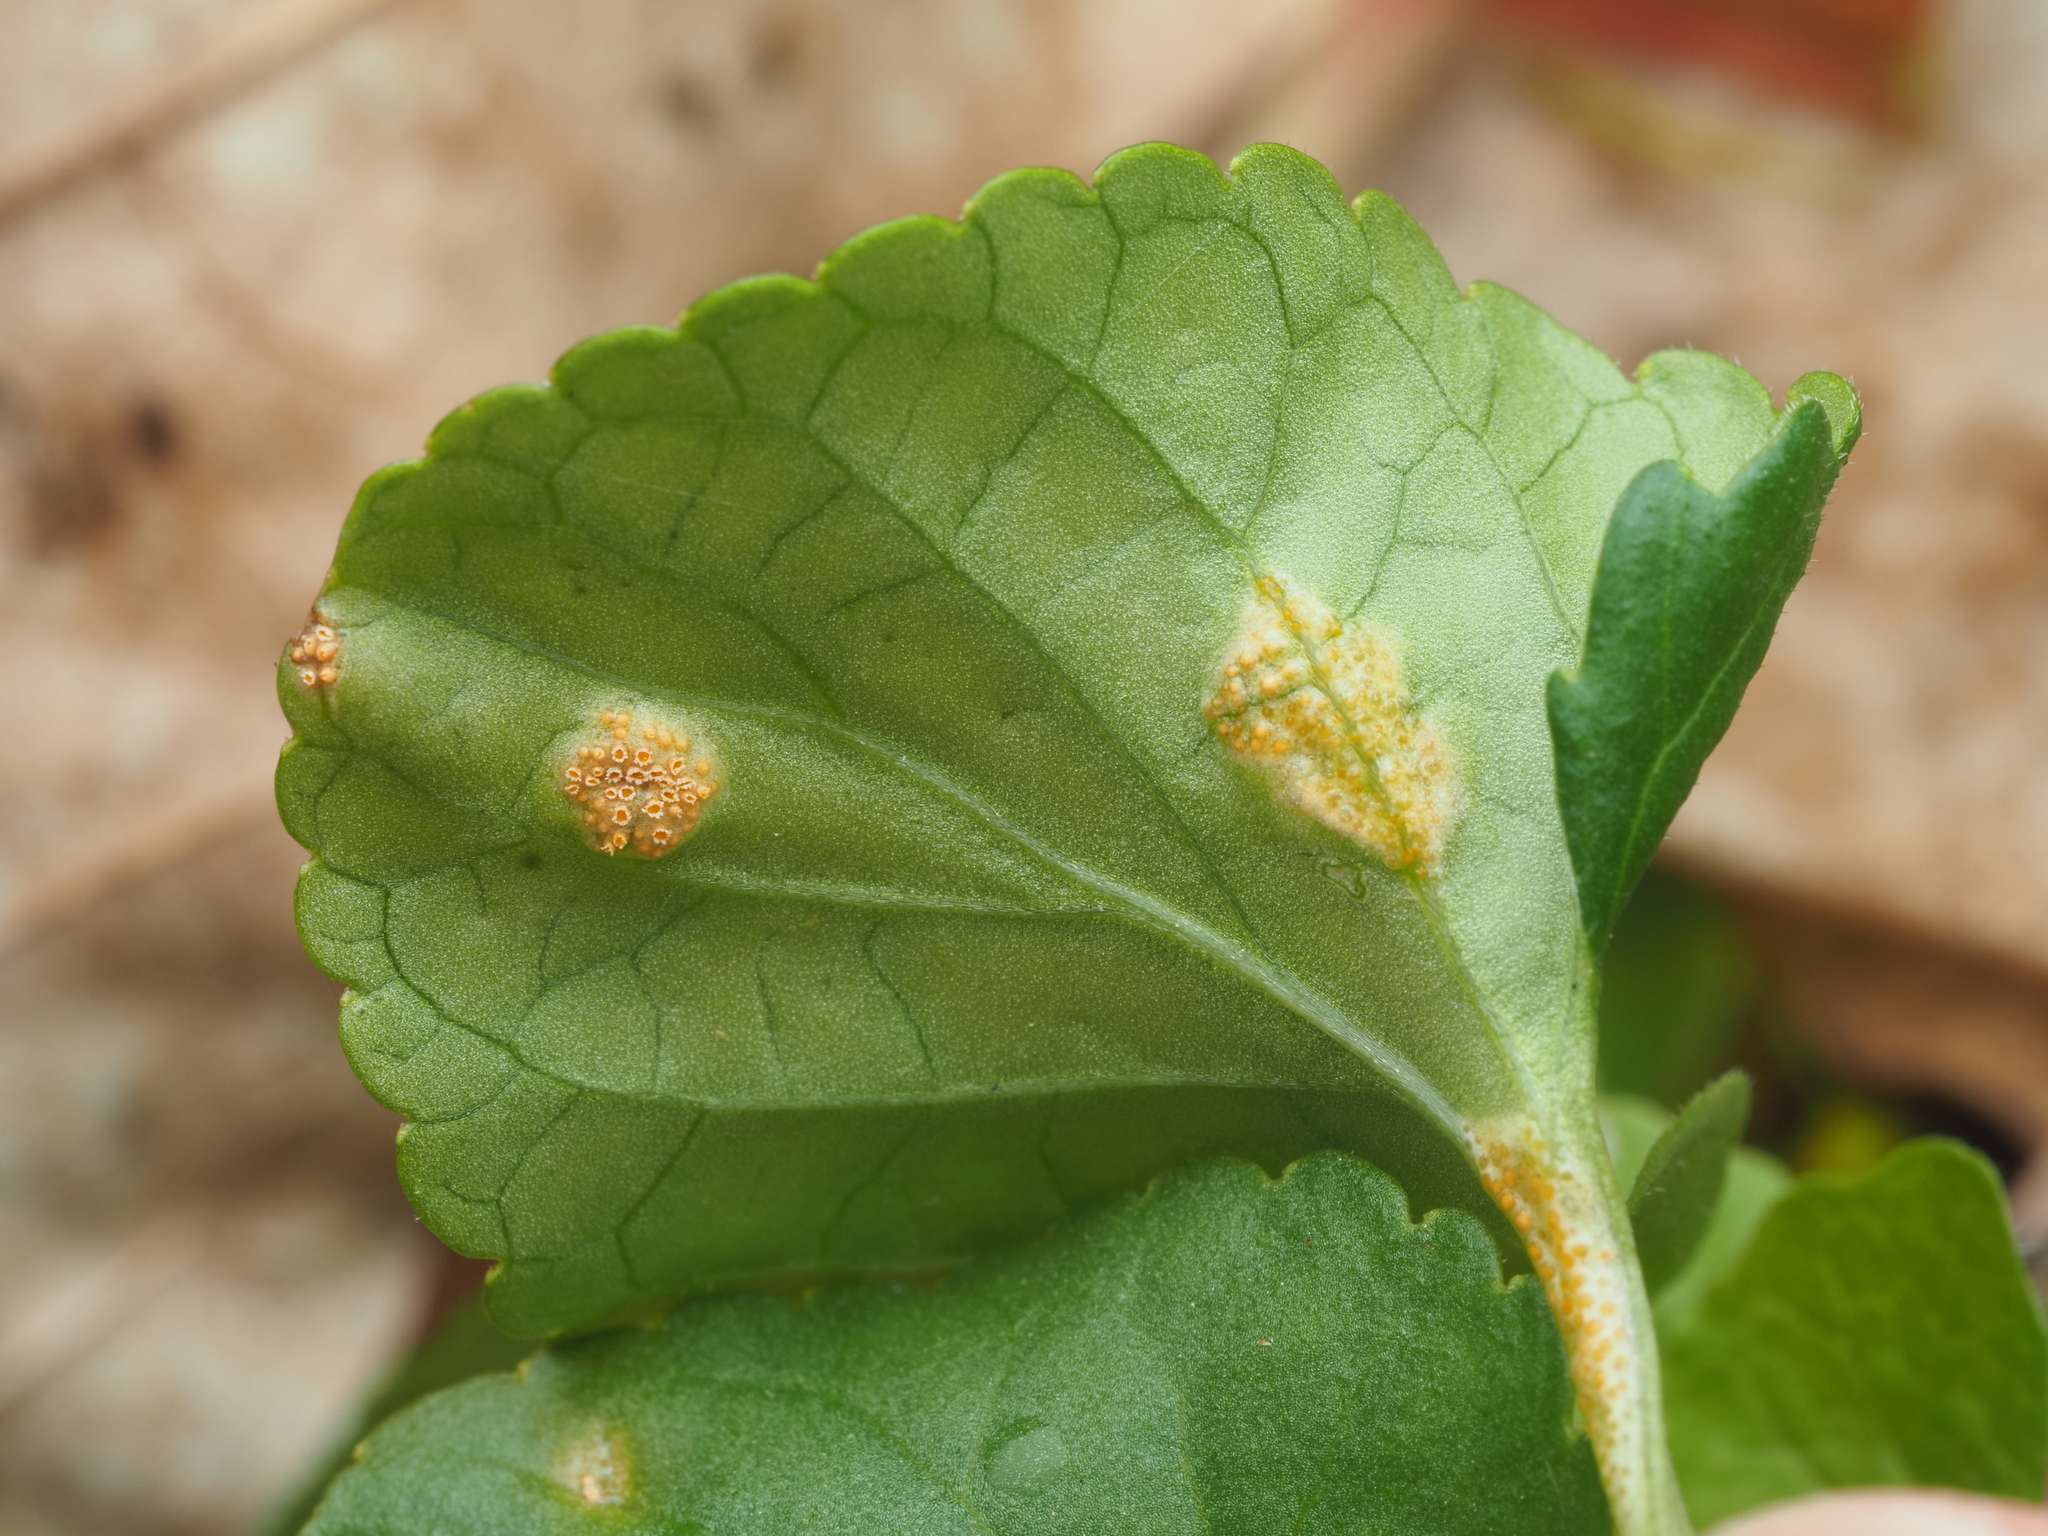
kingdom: Fungi
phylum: Basidiomycota
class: Pucciniomycetes
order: Pucciniales
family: Pucciniaceae
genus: Puccinia
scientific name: Puccinia violae
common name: Violet rust
